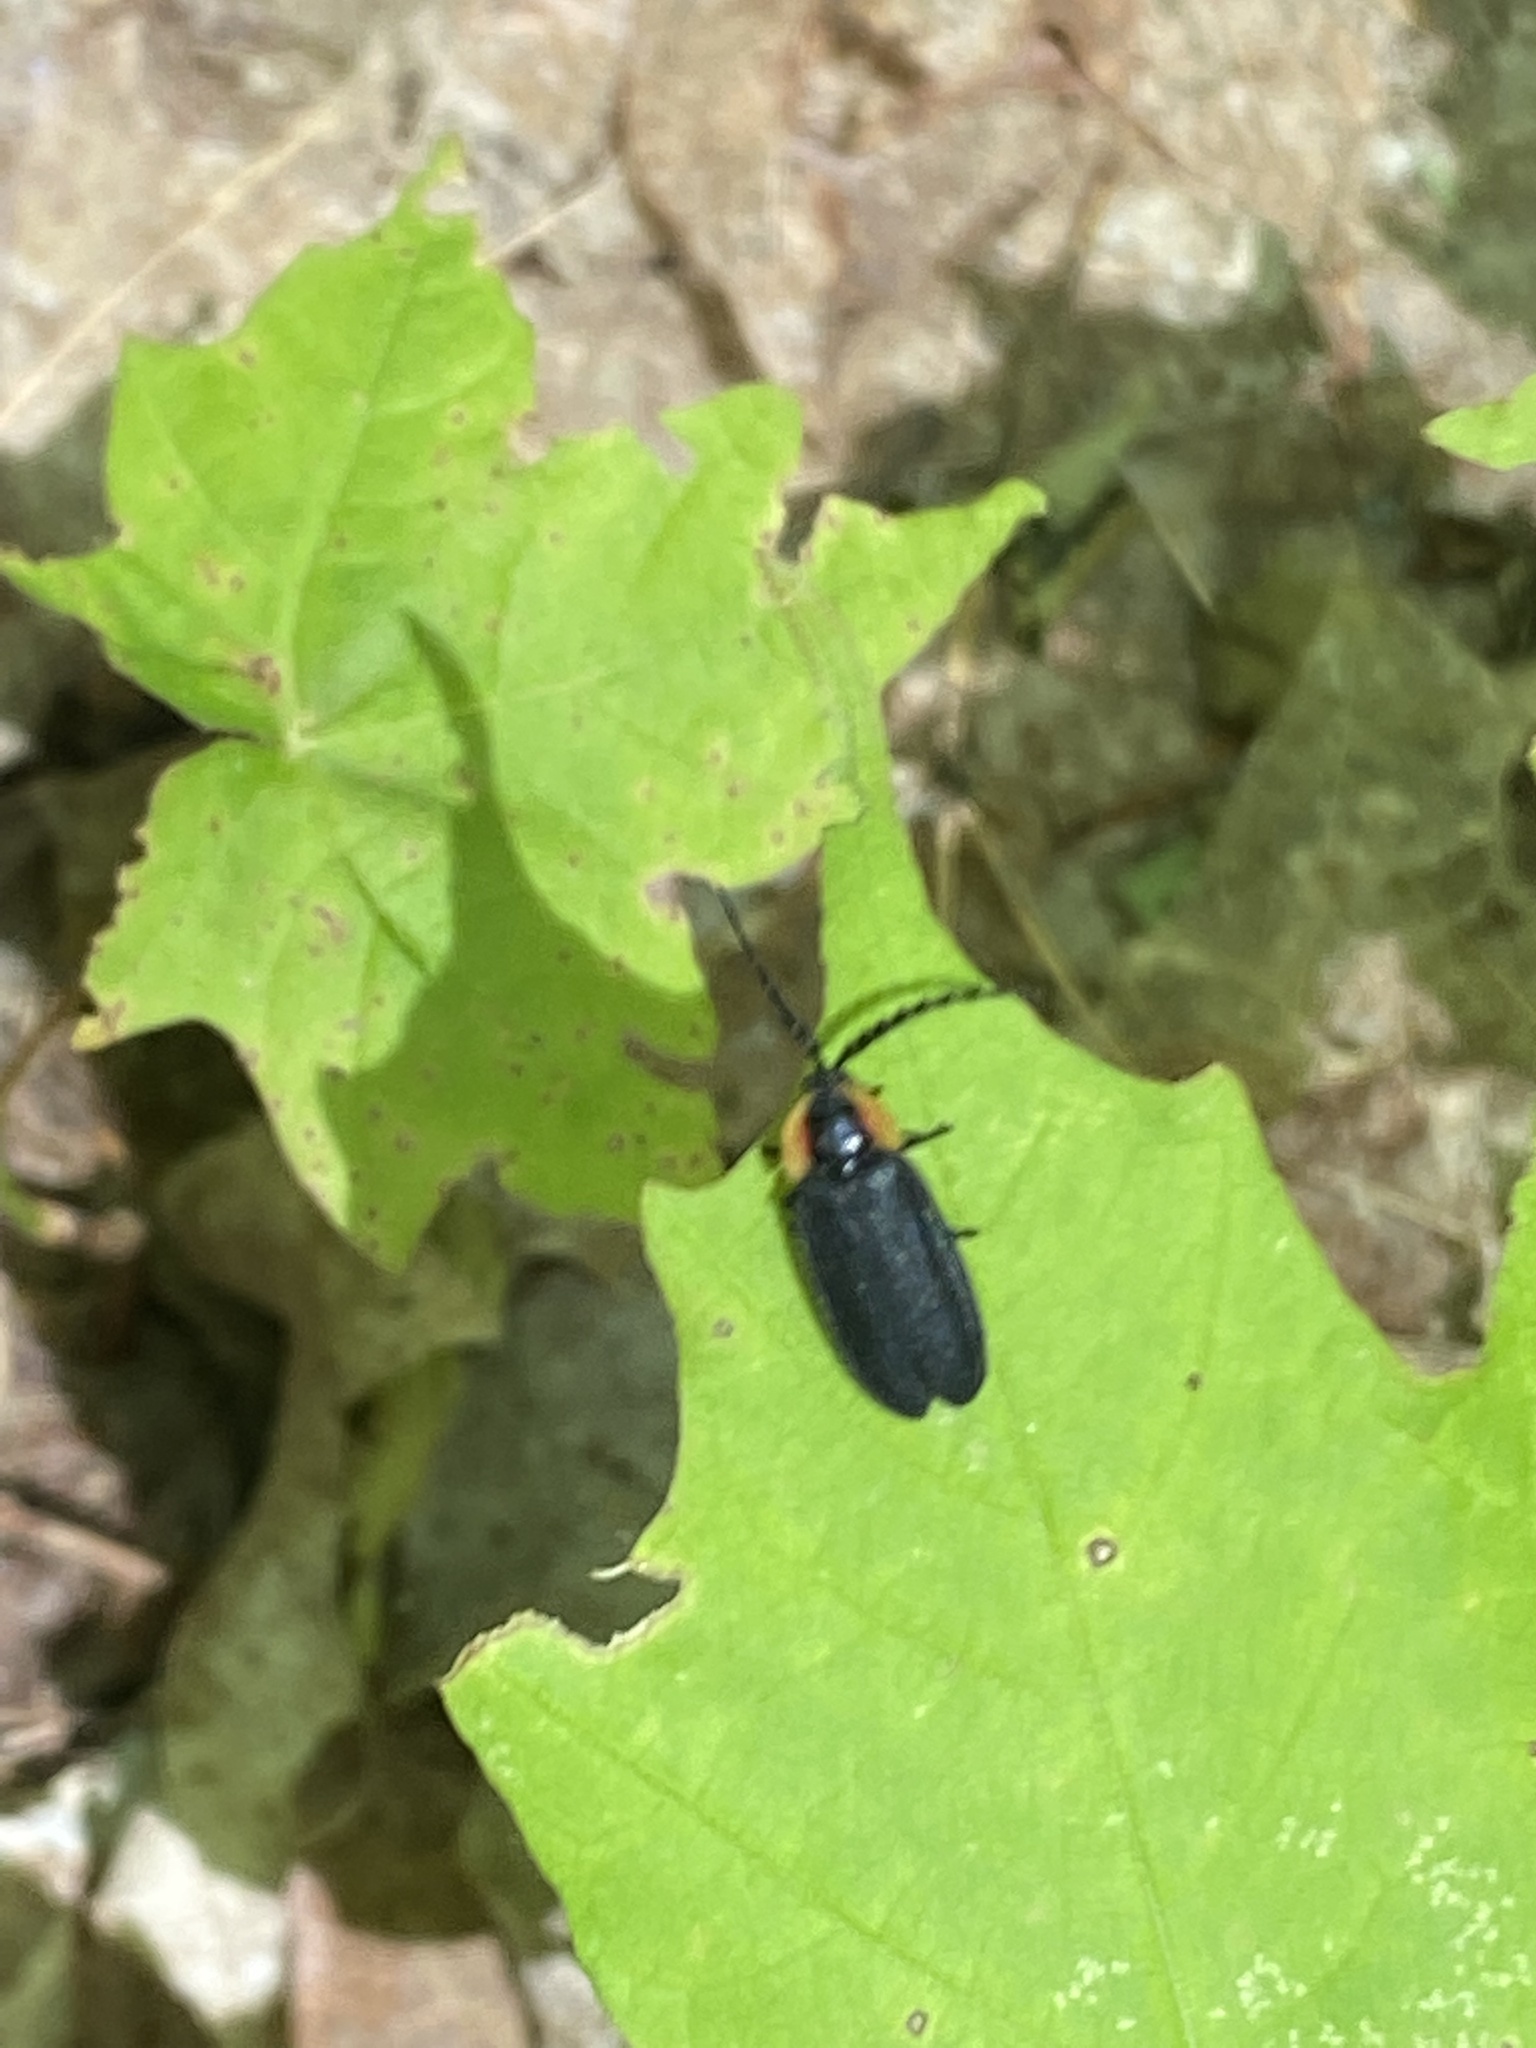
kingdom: Animalia
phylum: Arthropoda
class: Insecta
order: Coleoptera
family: Lampyridae
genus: Lucidota
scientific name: Lucidota atra
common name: Black firefly
